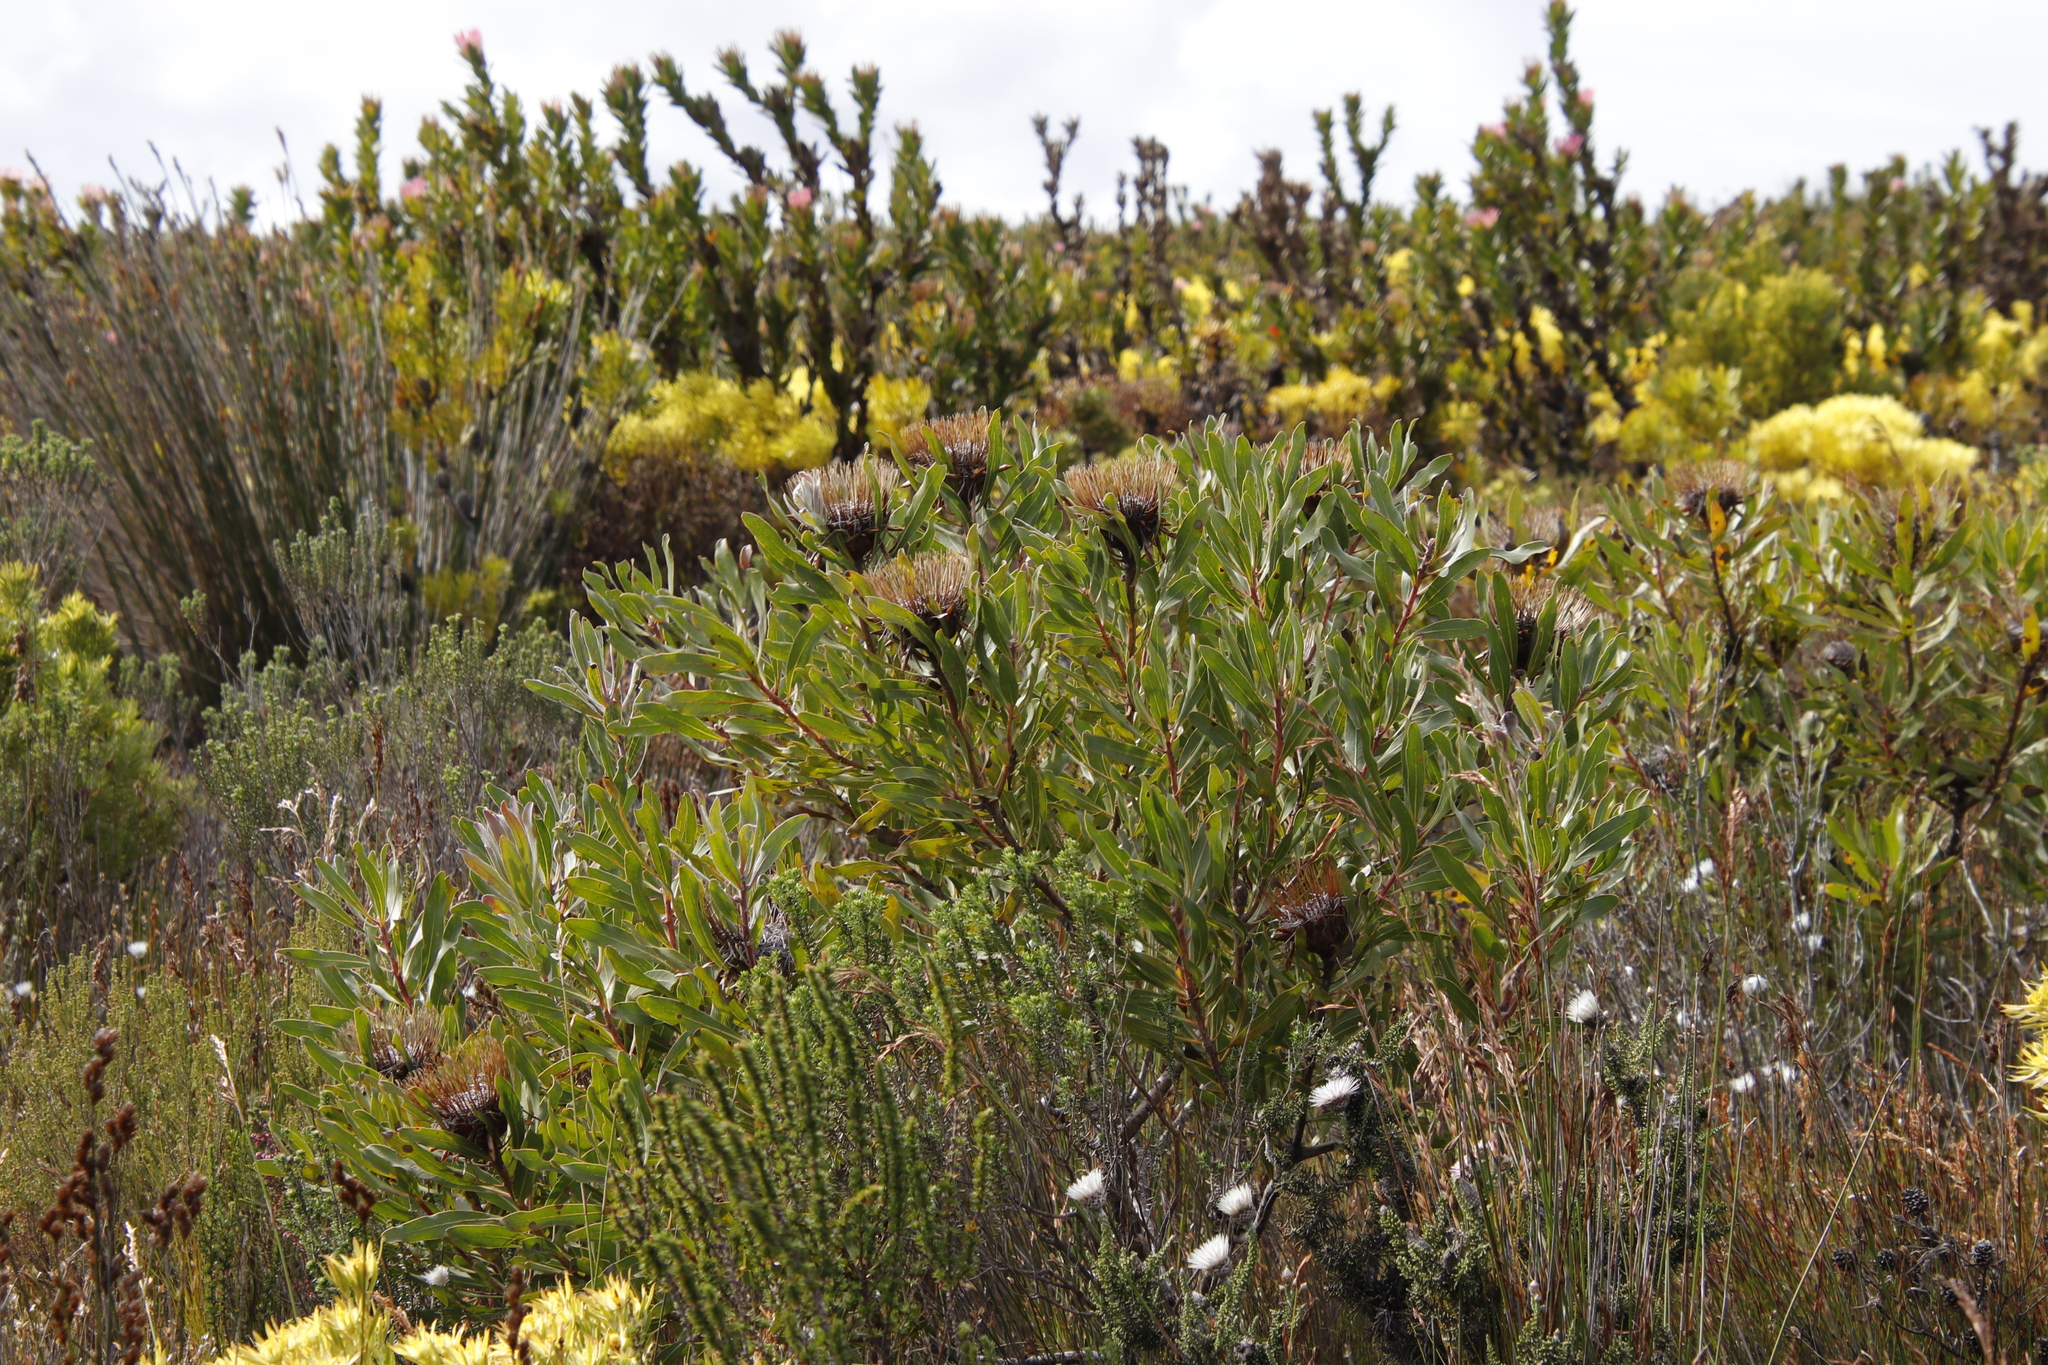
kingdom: Plantae
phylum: Tracheophyta
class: Magnoliopsida
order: Proteales
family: Proteaceae
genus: Protea
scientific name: Protea susannae
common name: Foetid-leaf sugarbush
